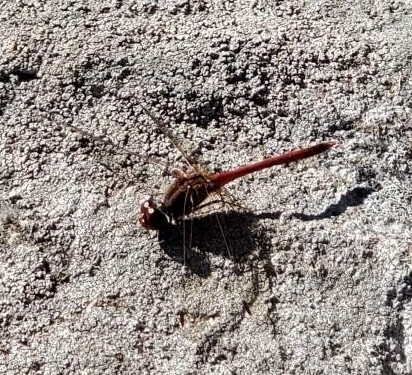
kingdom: Animalia
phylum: Arthropoda
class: Insecta
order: Odonata
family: Libellulidae
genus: Sympetrum
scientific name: Sympetrum vicinum
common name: Autumn meadowhawk
